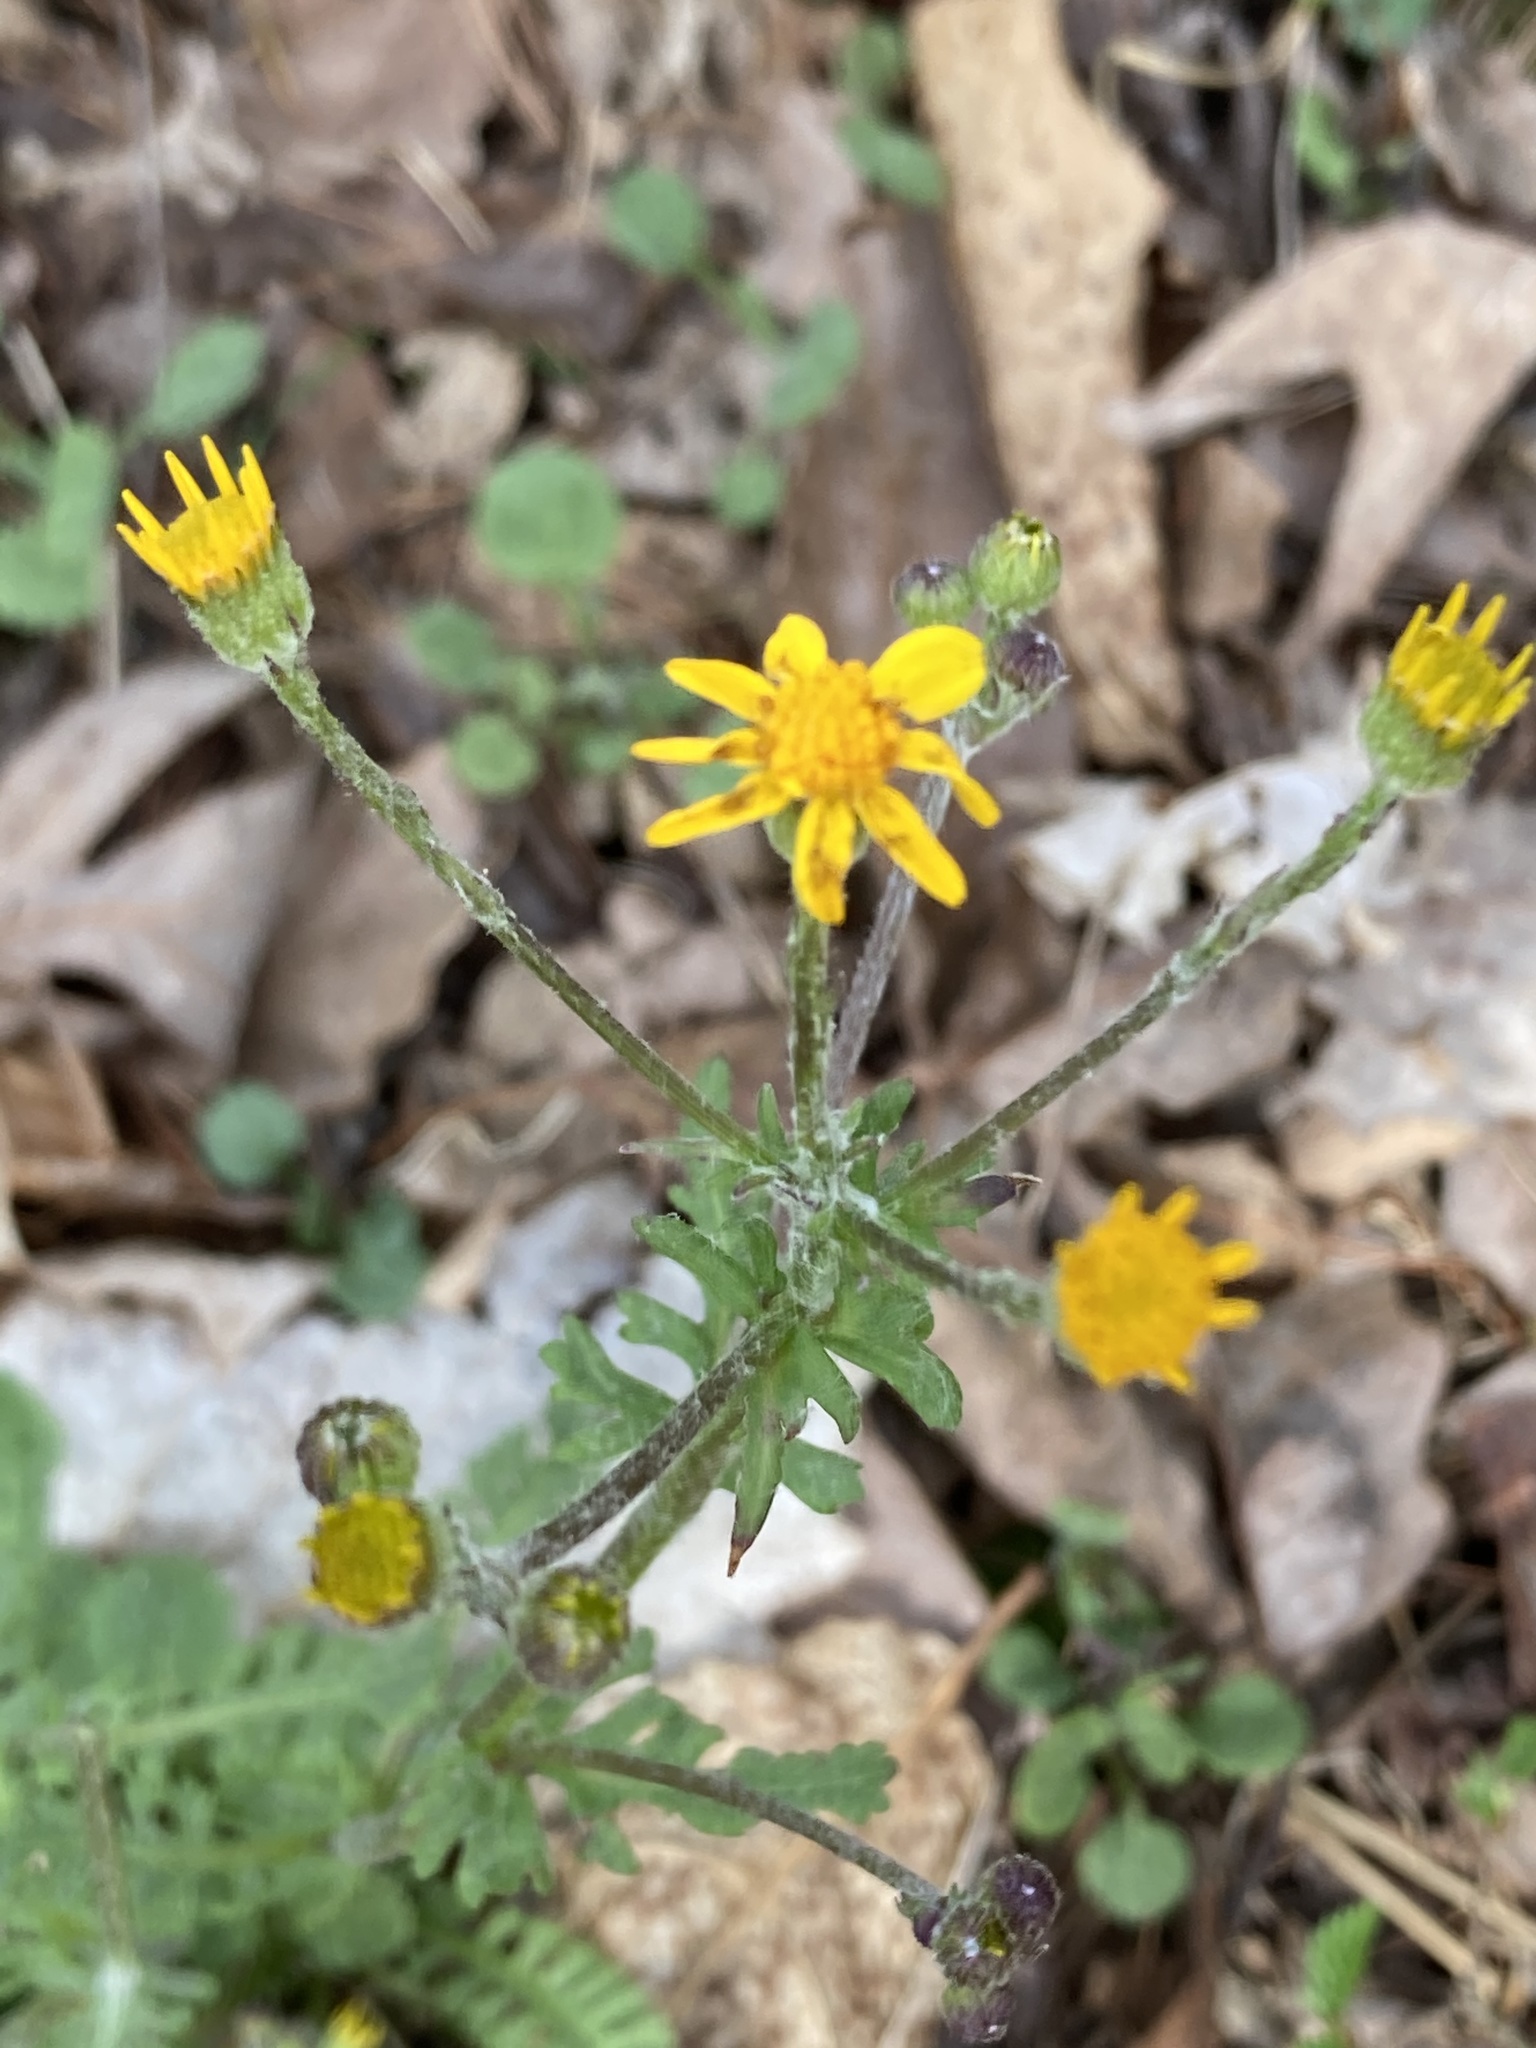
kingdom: Plantae
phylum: Tracheophyta
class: Magnoliopsida
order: Asterales
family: Asteraceae
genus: Packera
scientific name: Packera aurea
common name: Golden groundsel
